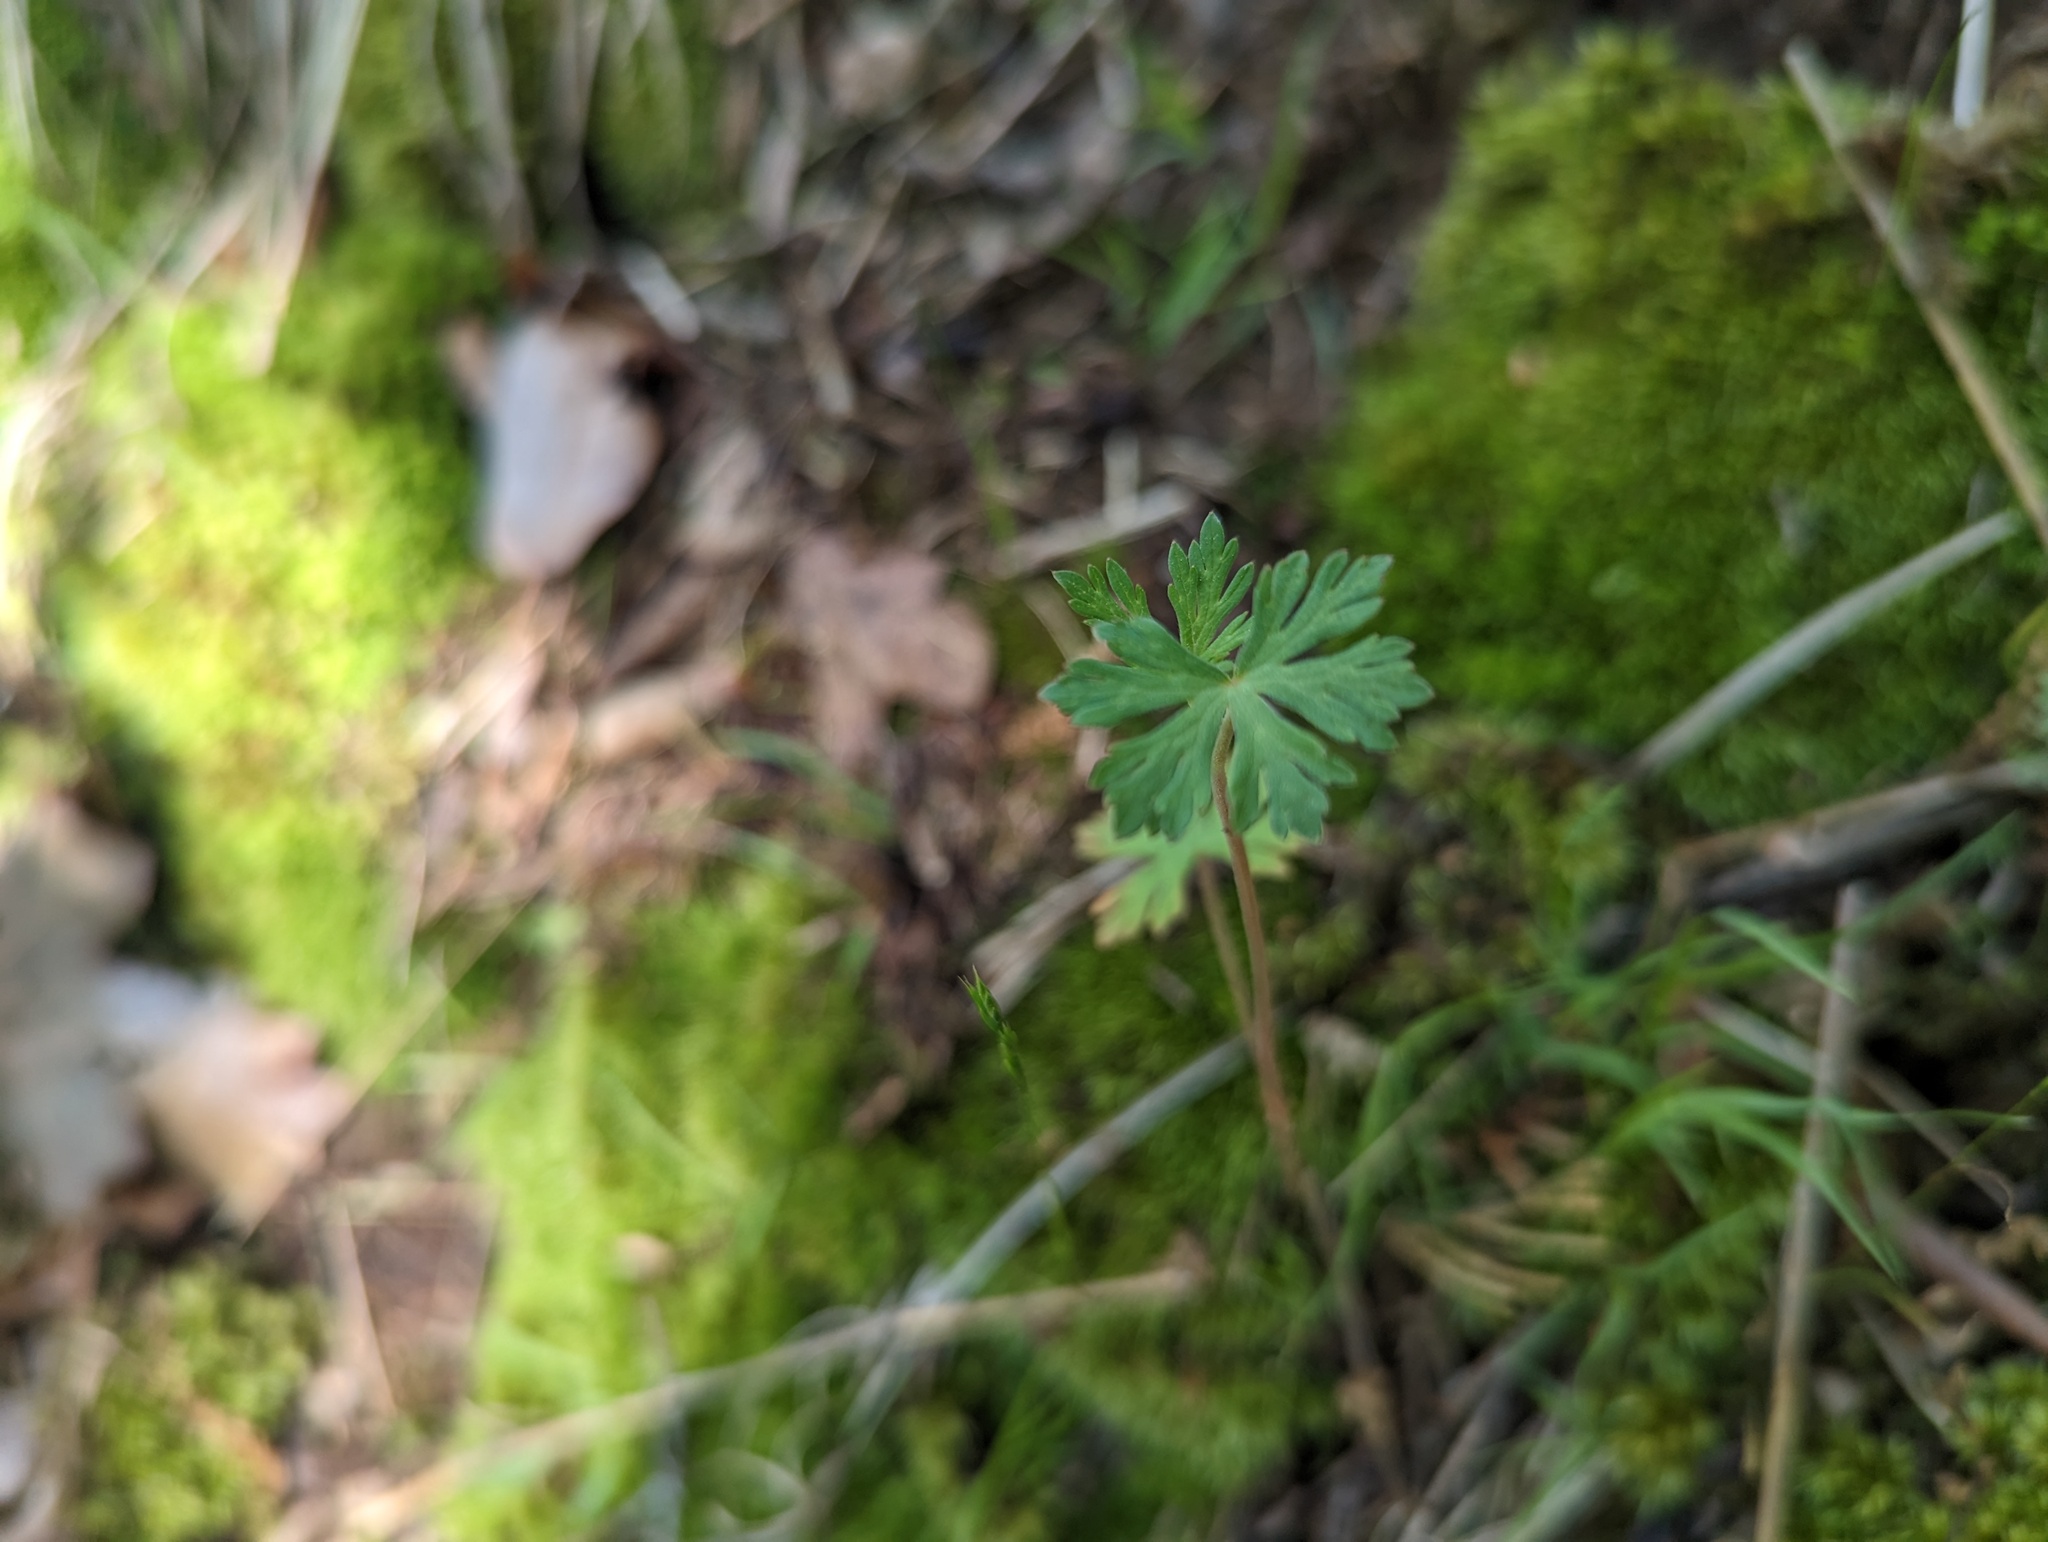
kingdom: Plantae
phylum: Tracheophyta
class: Magnoliopsida
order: Geraniales
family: Geraniaceae
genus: Geranium
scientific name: Geranium carolinianum
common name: Carolina crane's-bill
